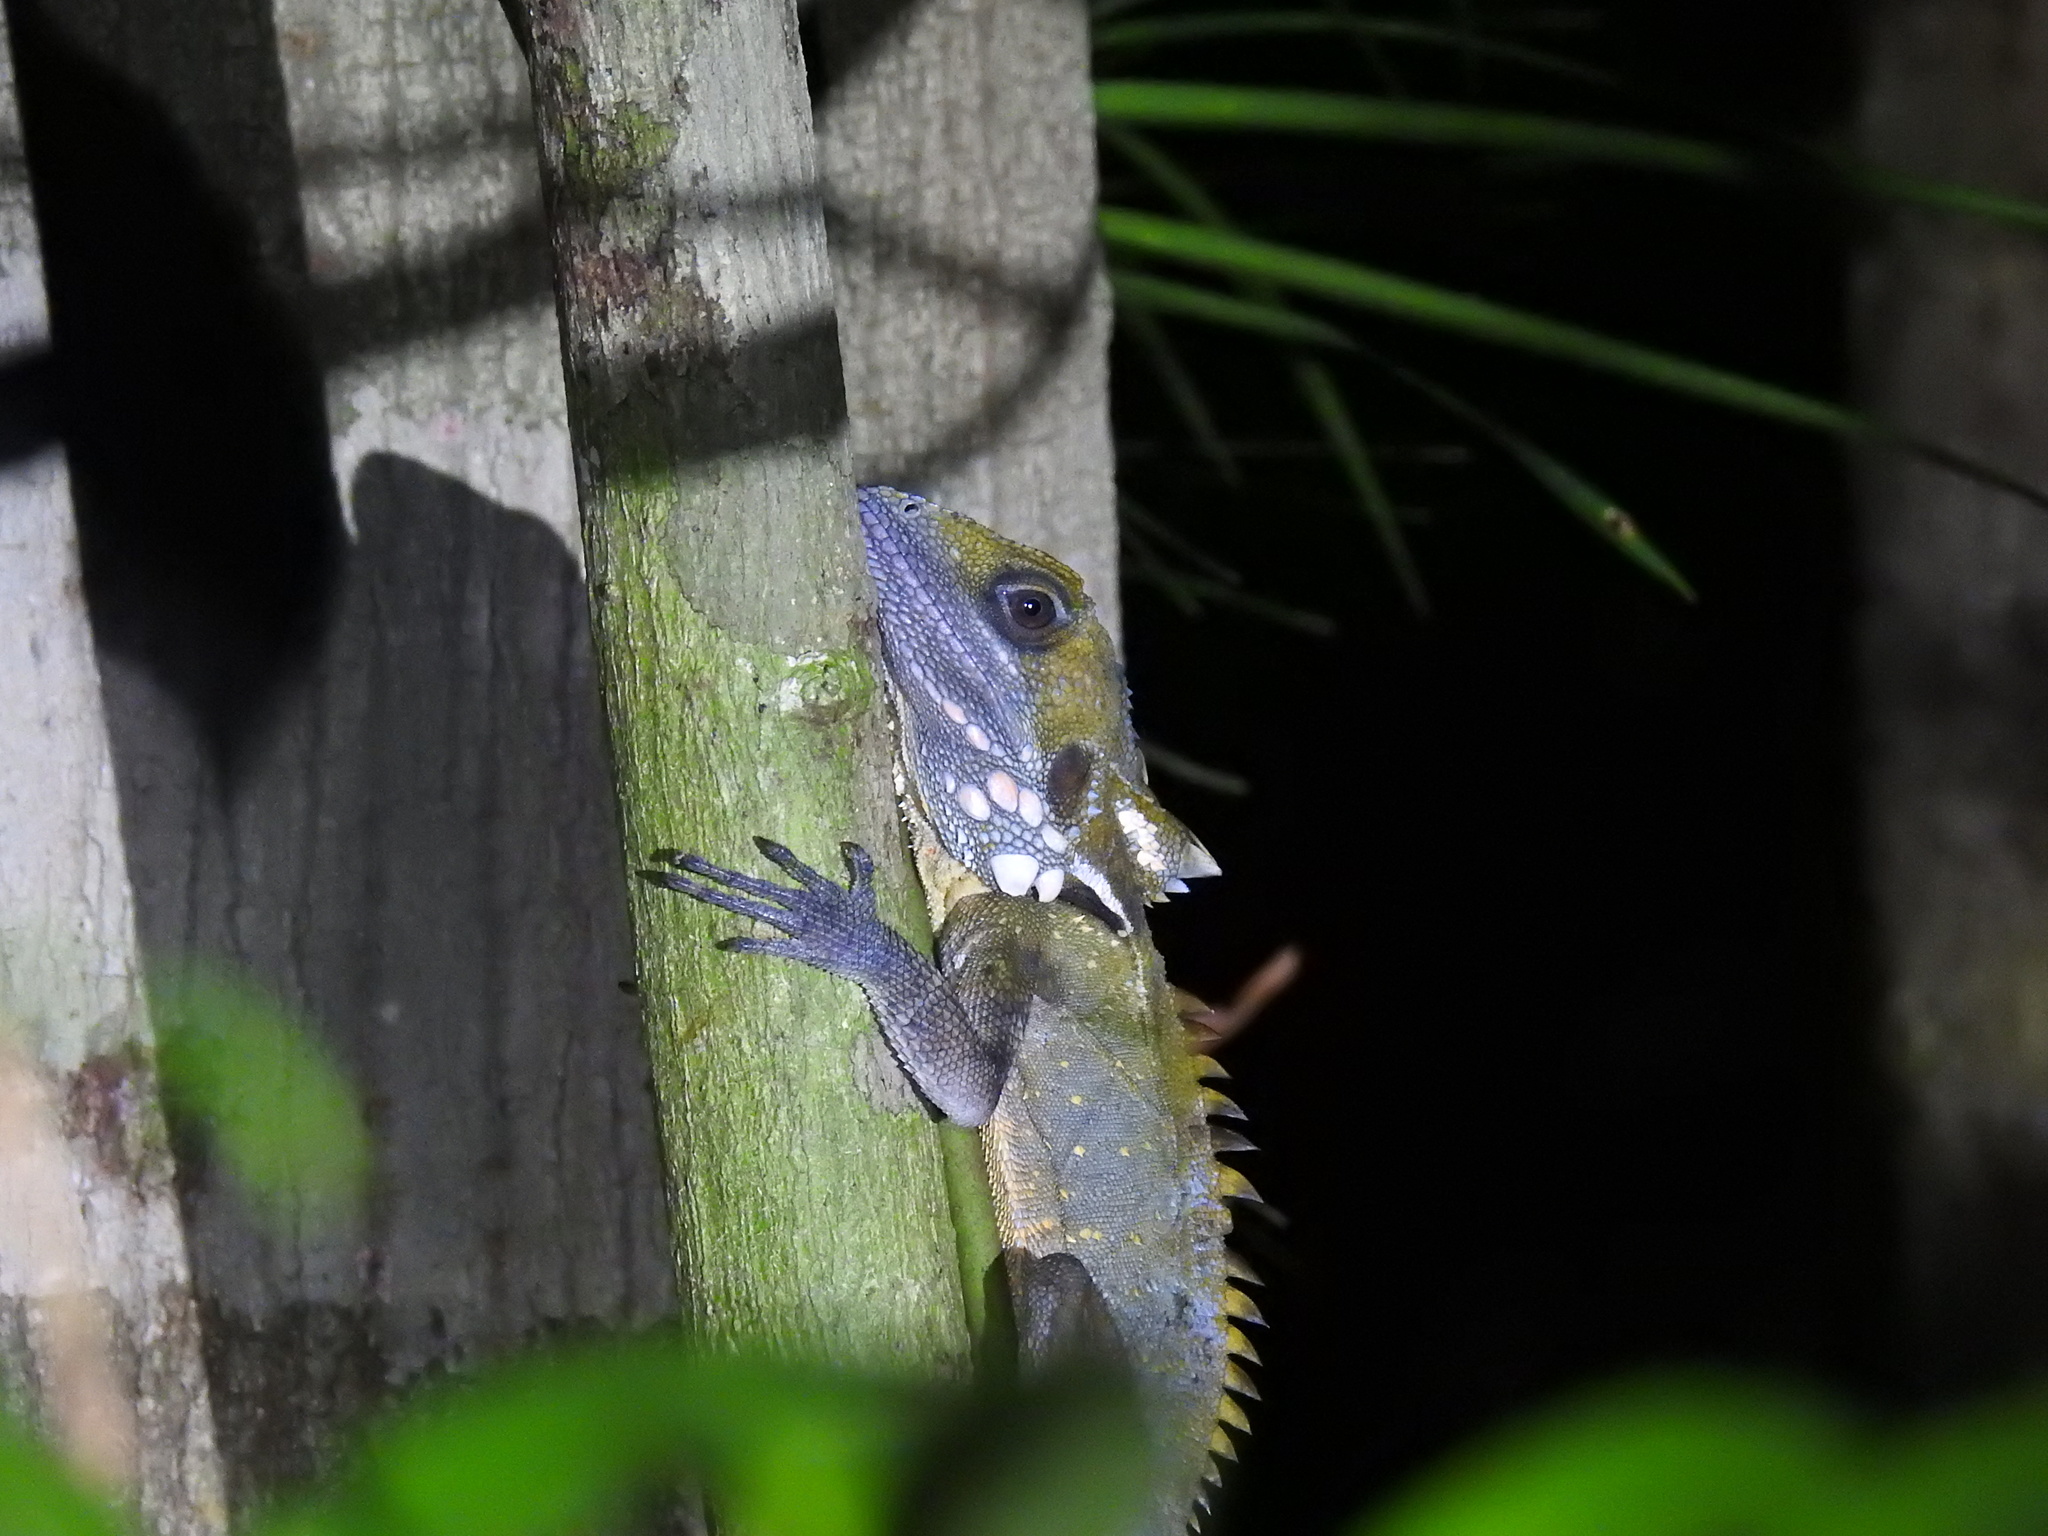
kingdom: Animalia
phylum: Chordata
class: Squamata
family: Agamidae
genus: Lophosaurus
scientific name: Lophosaurus boydii
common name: Boyd's forest dragon
